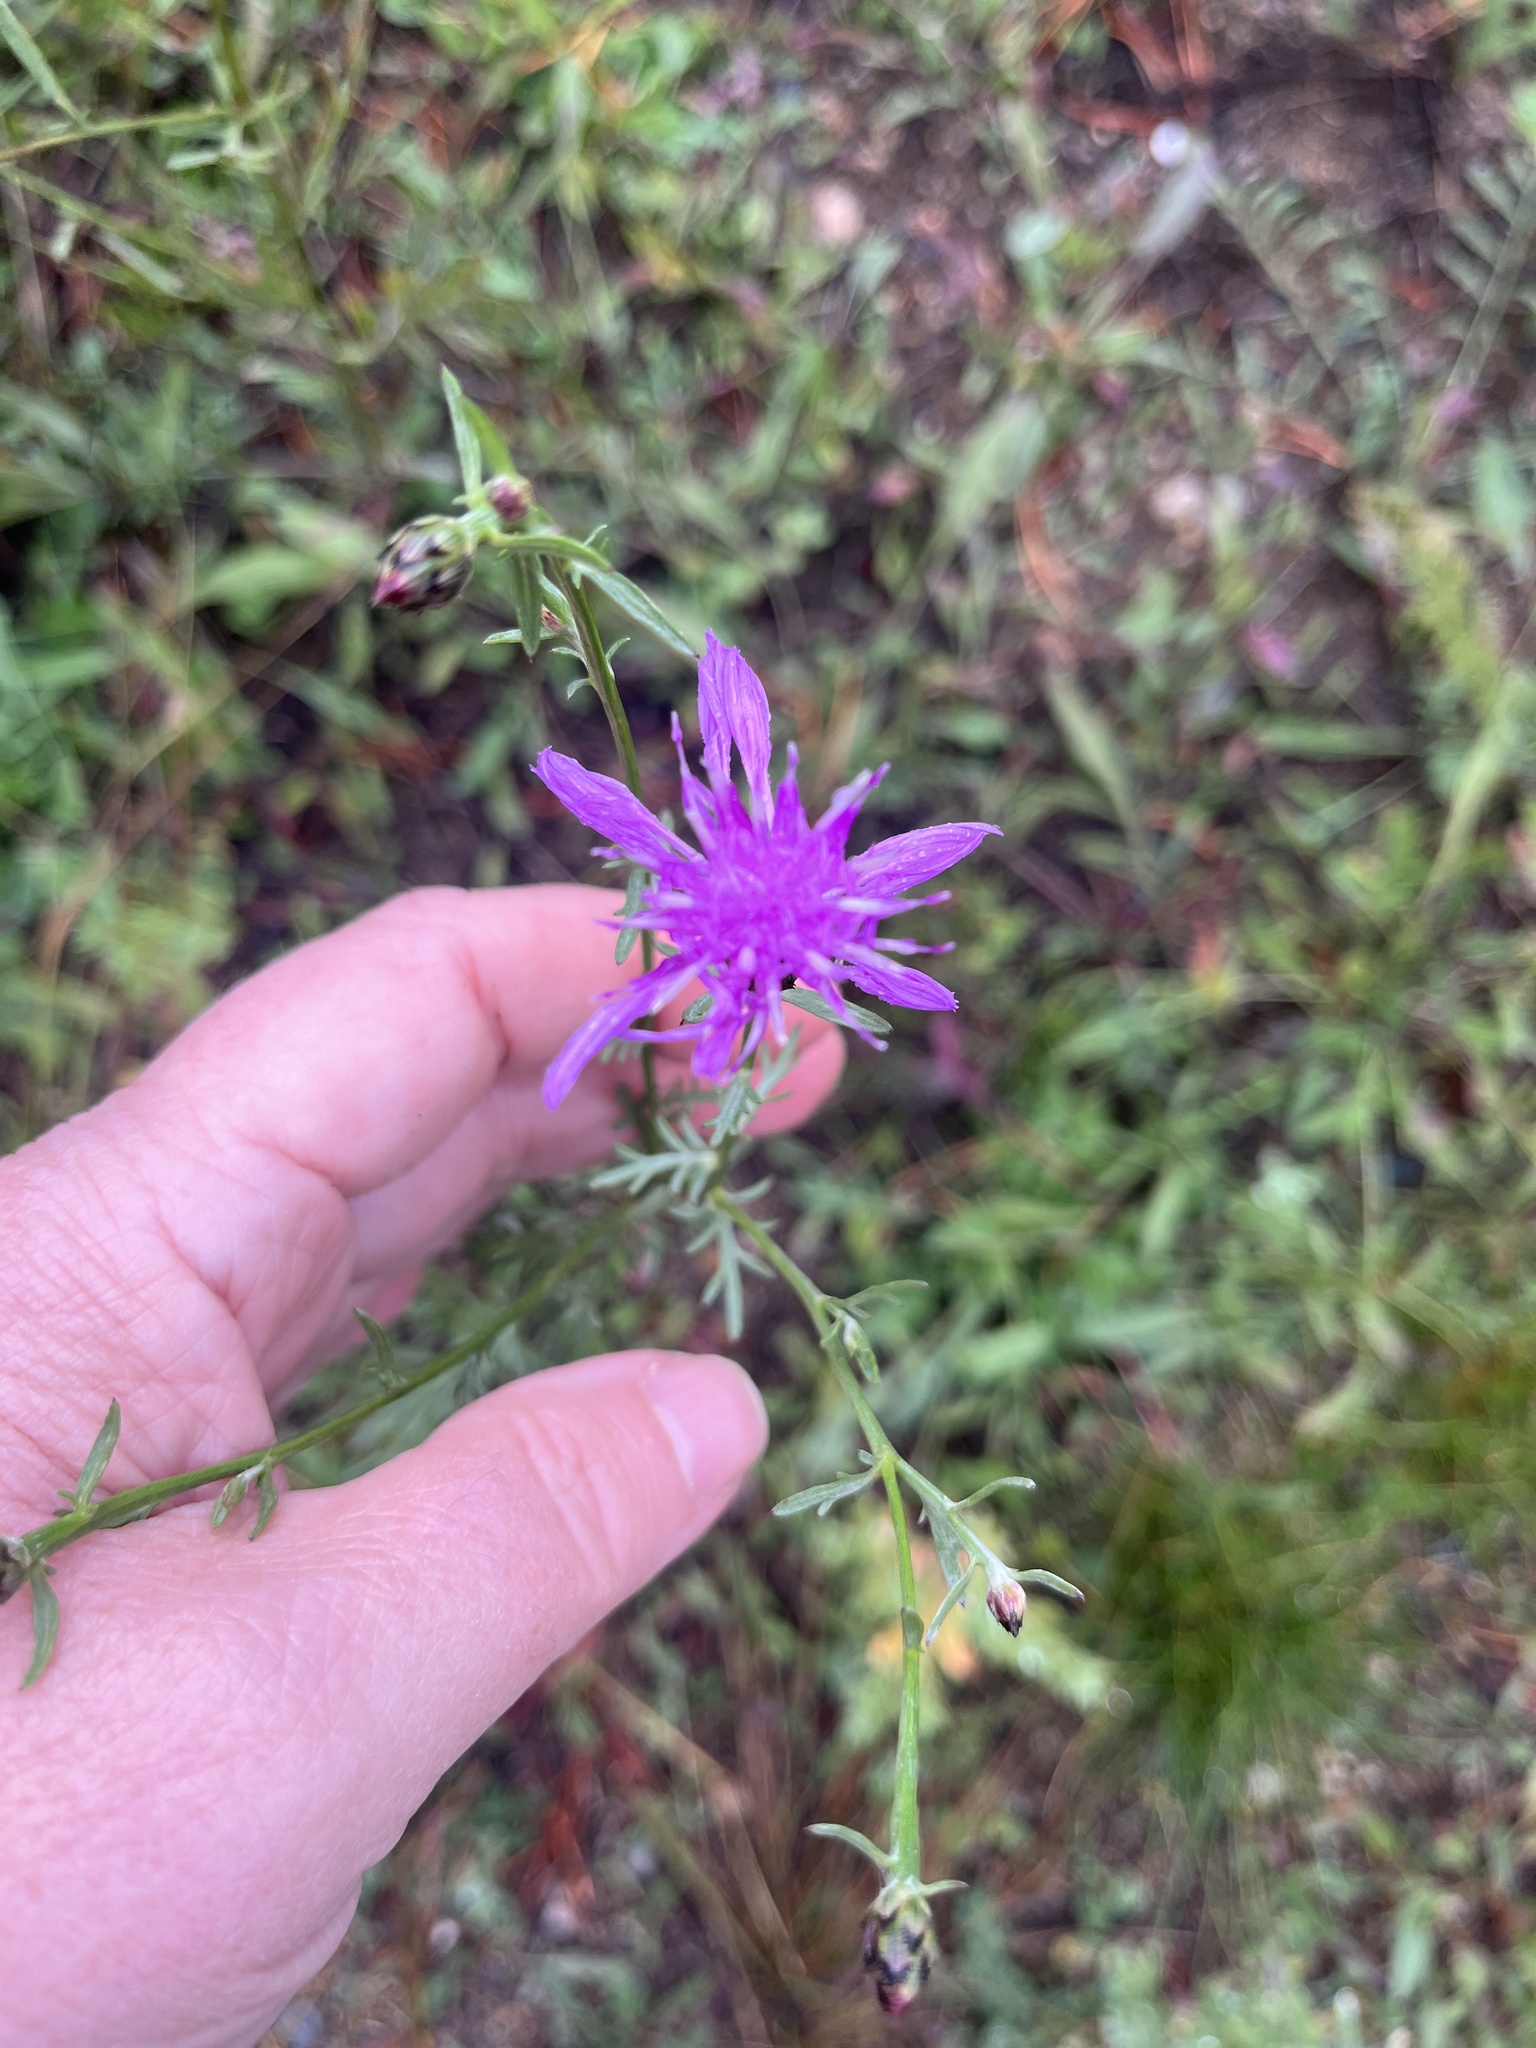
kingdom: Plantae
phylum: Tracheophyta
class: Magnoliopsida
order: Asterales
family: Asteraceae
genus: Centaurea
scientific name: Centaurea stoebe
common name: Spotted knapweed
